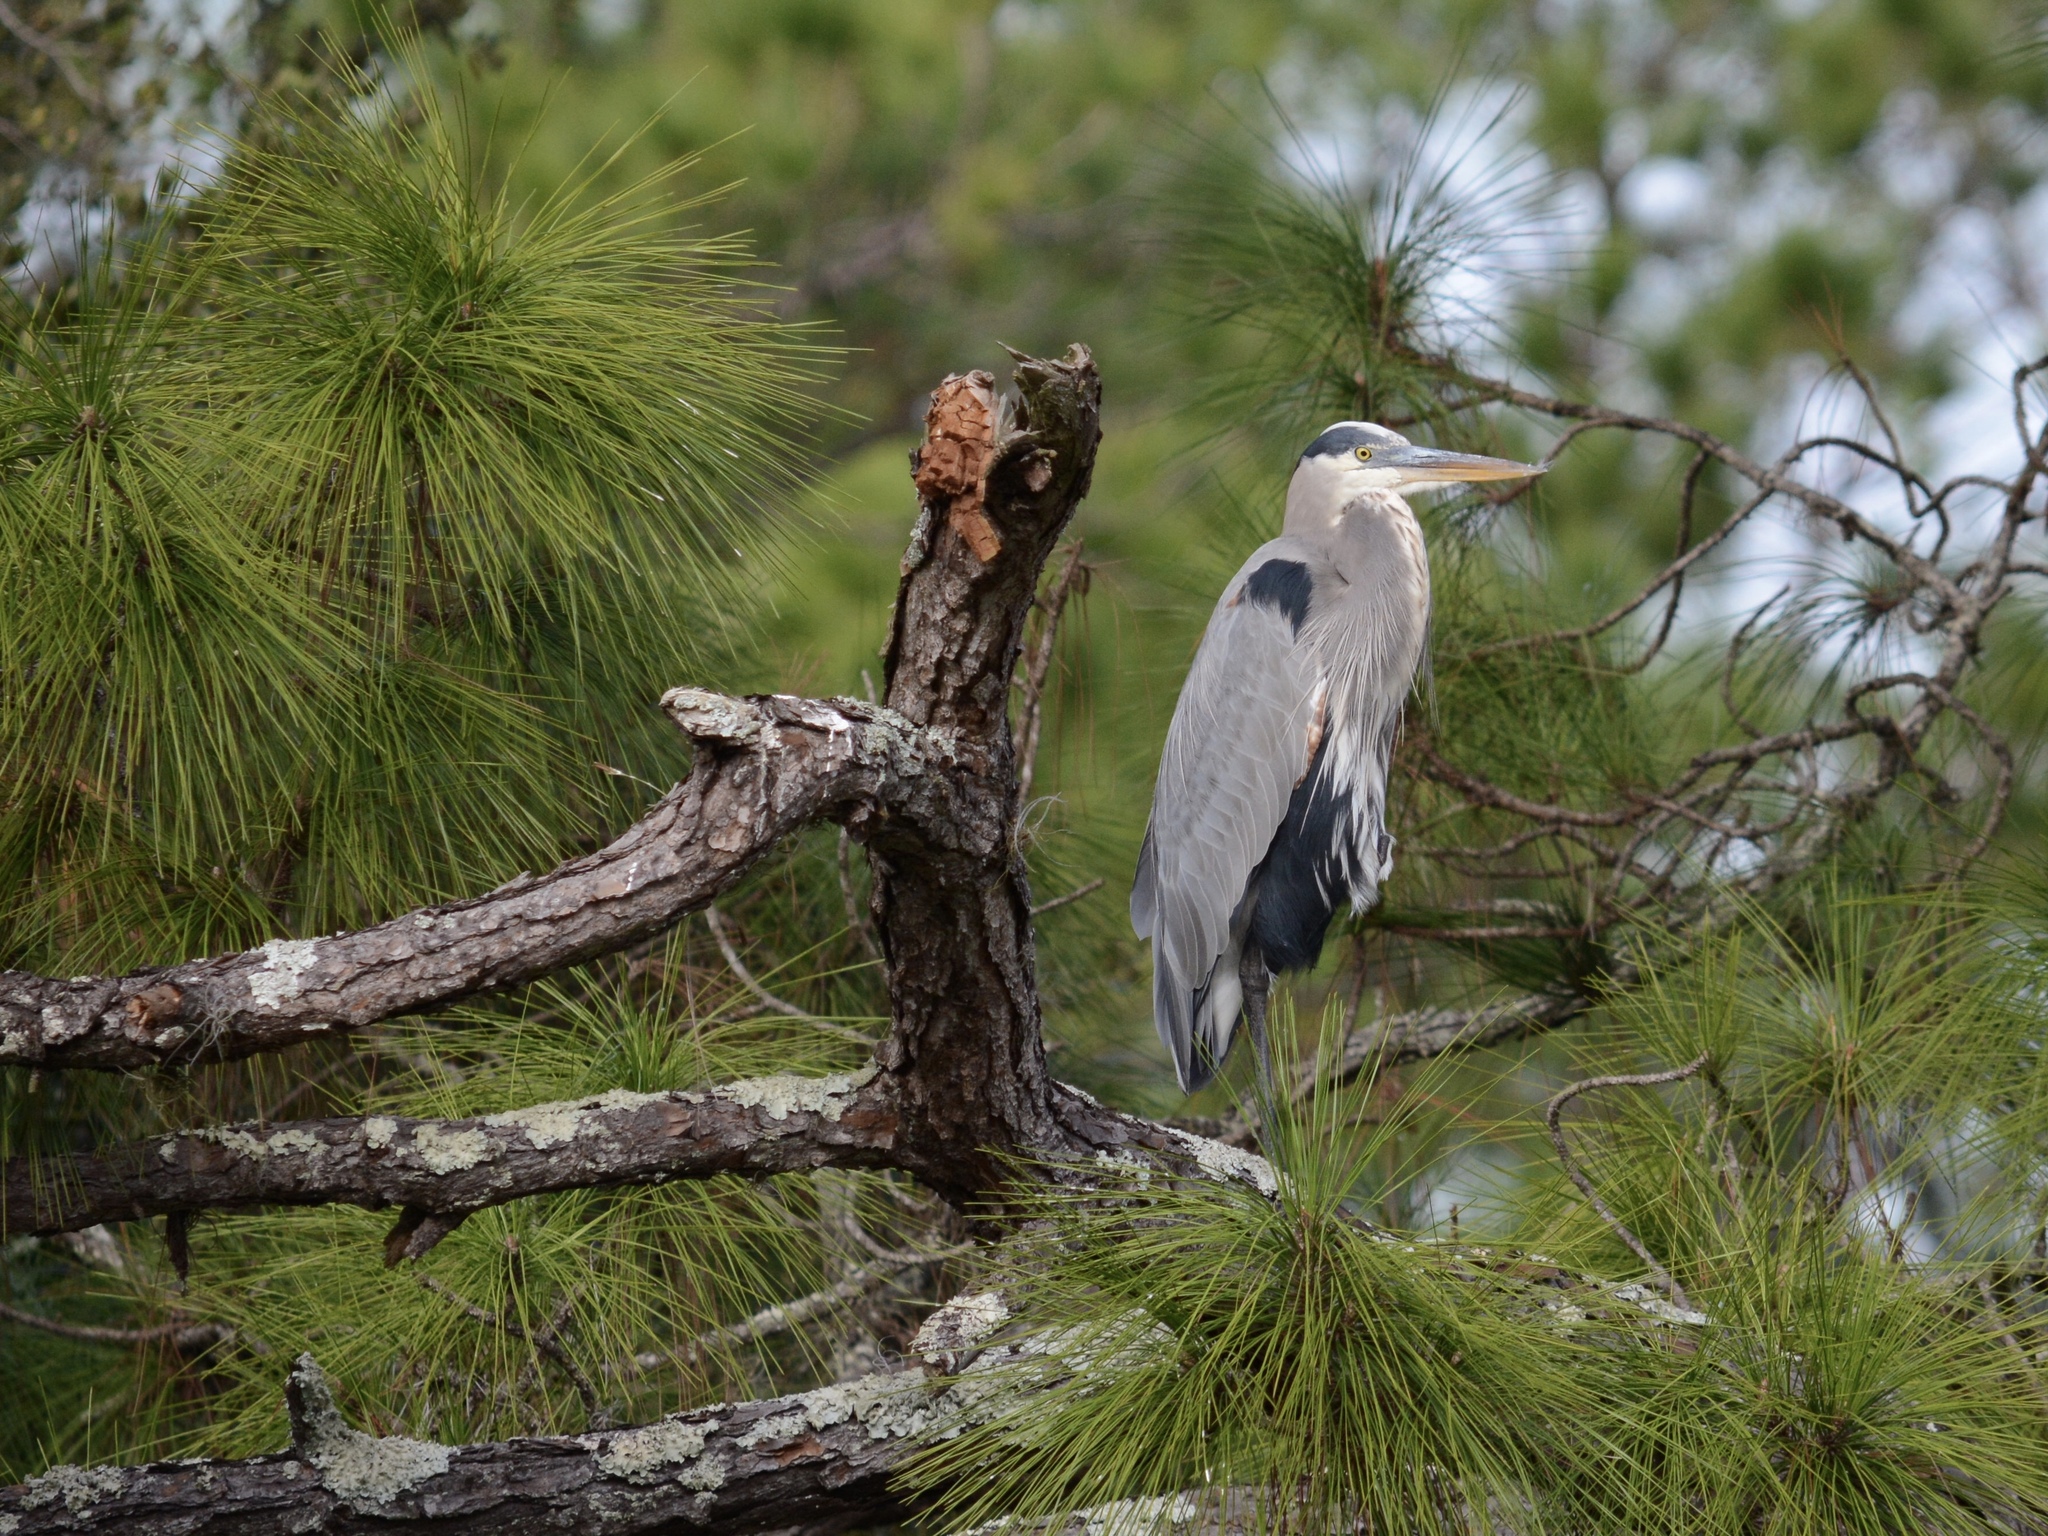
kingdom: Animalia
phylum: Chordata
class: Aves
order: Pelecaniformes
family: Ardeidae
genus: Ardea
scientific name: Ardea herodias
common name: Great blue heron
